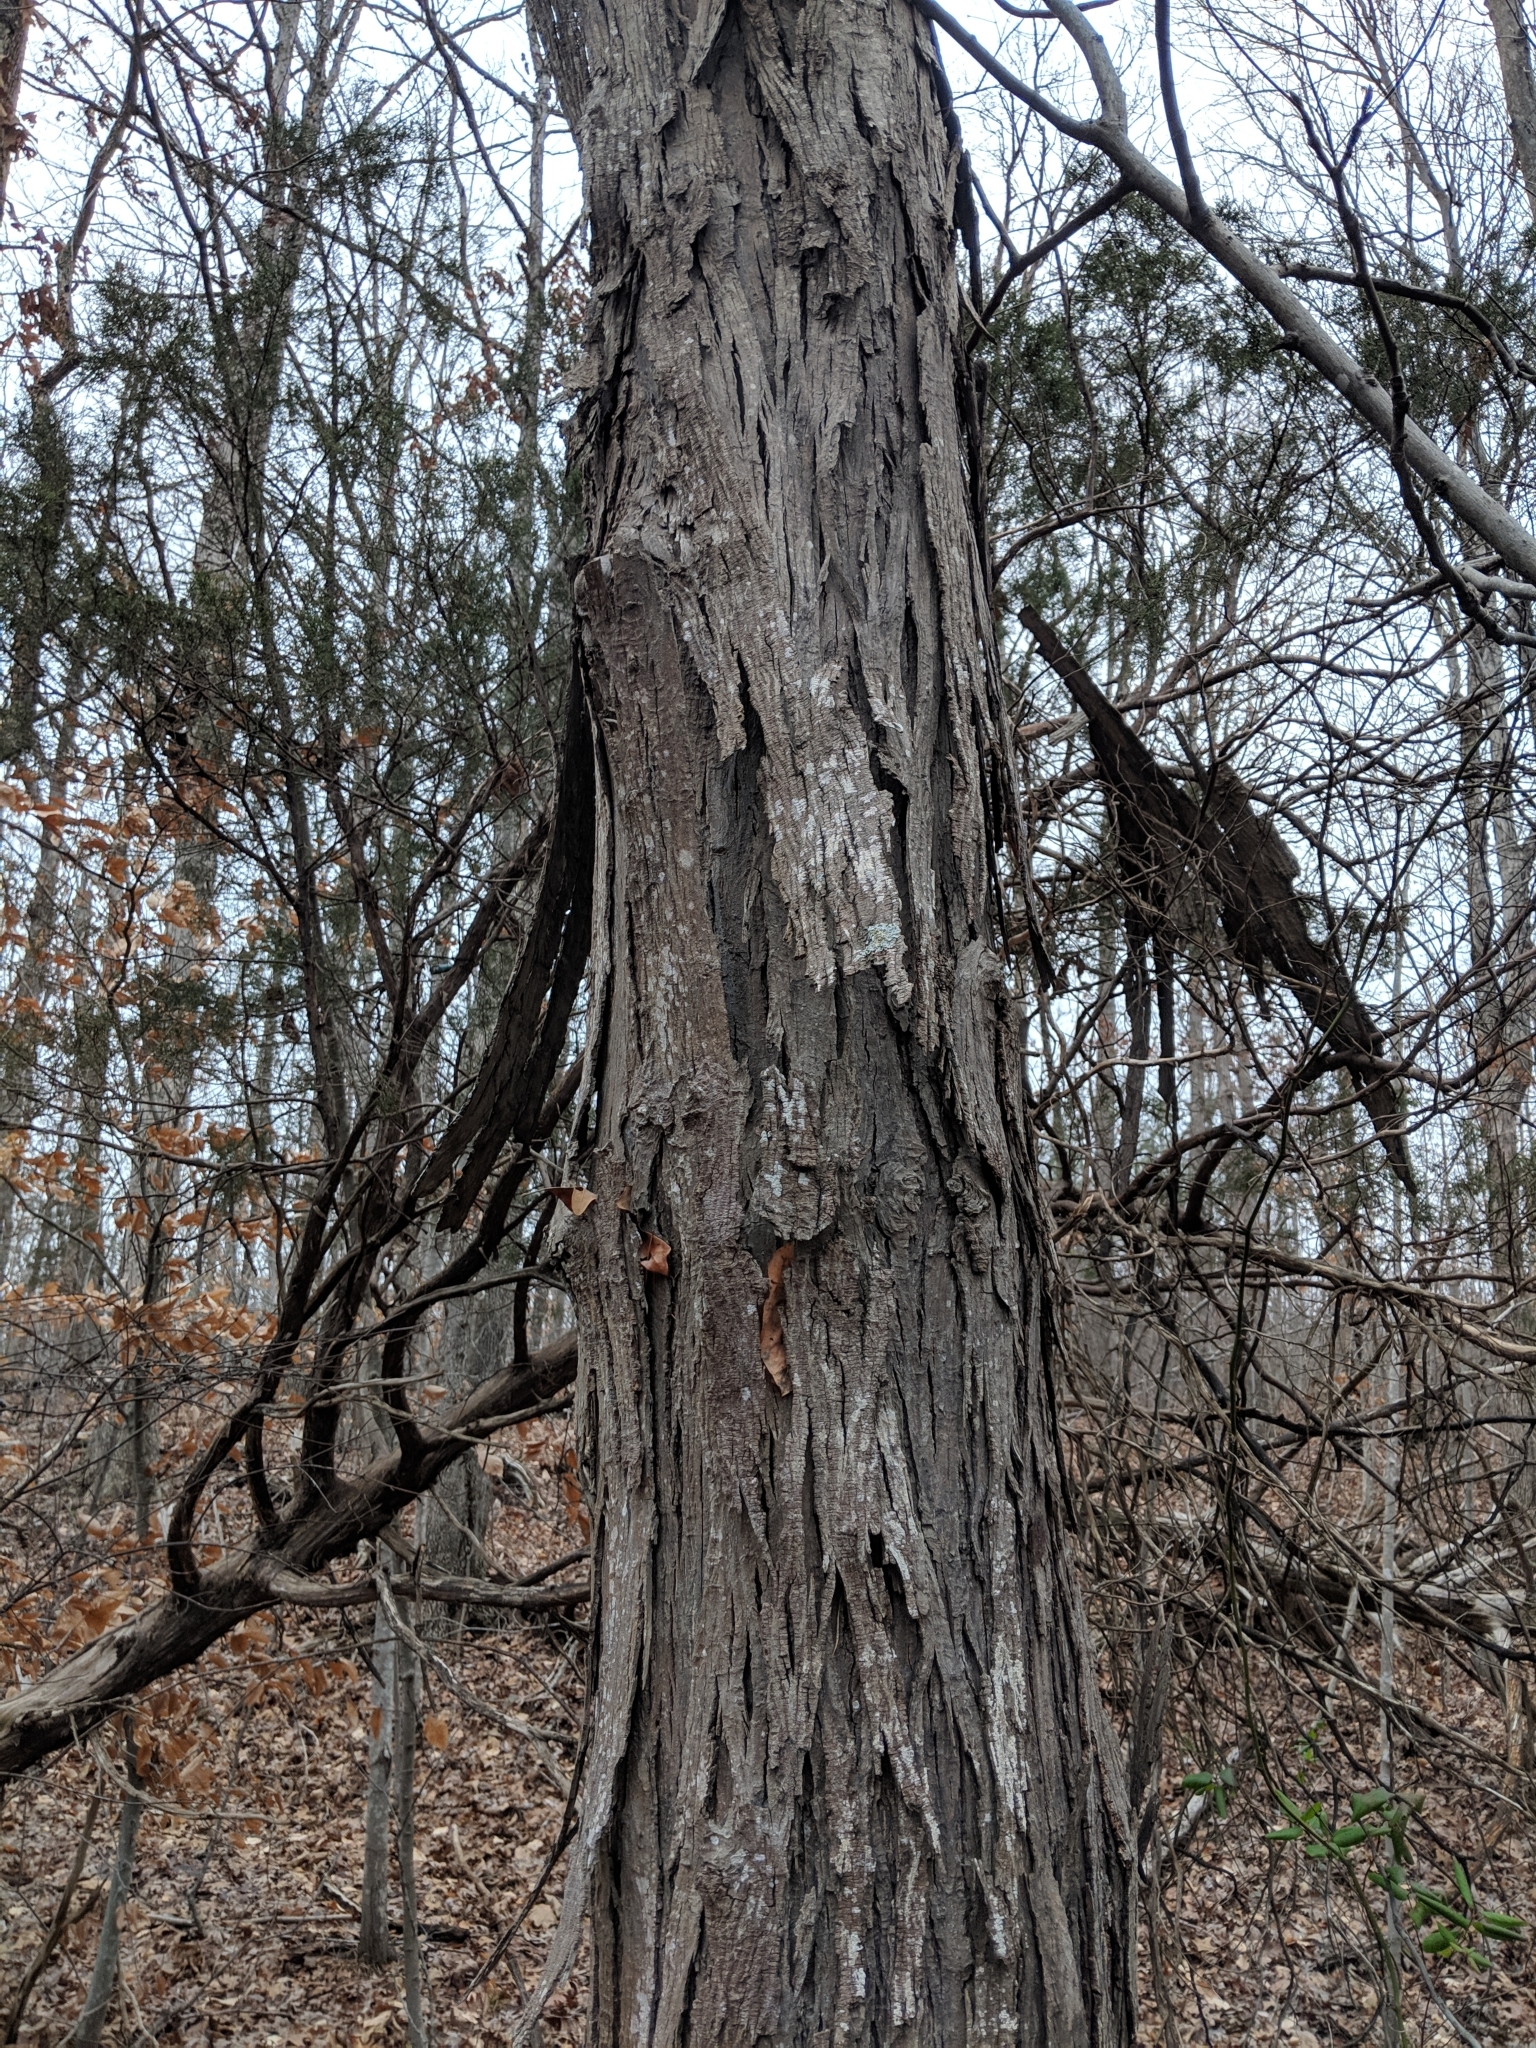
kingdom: Plantae
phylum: Tracheophyta
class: Magnoliopsida
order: Fagales
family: Juglandaceae
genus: Carya
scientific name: Carya ovata
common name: Shagbark hickory
